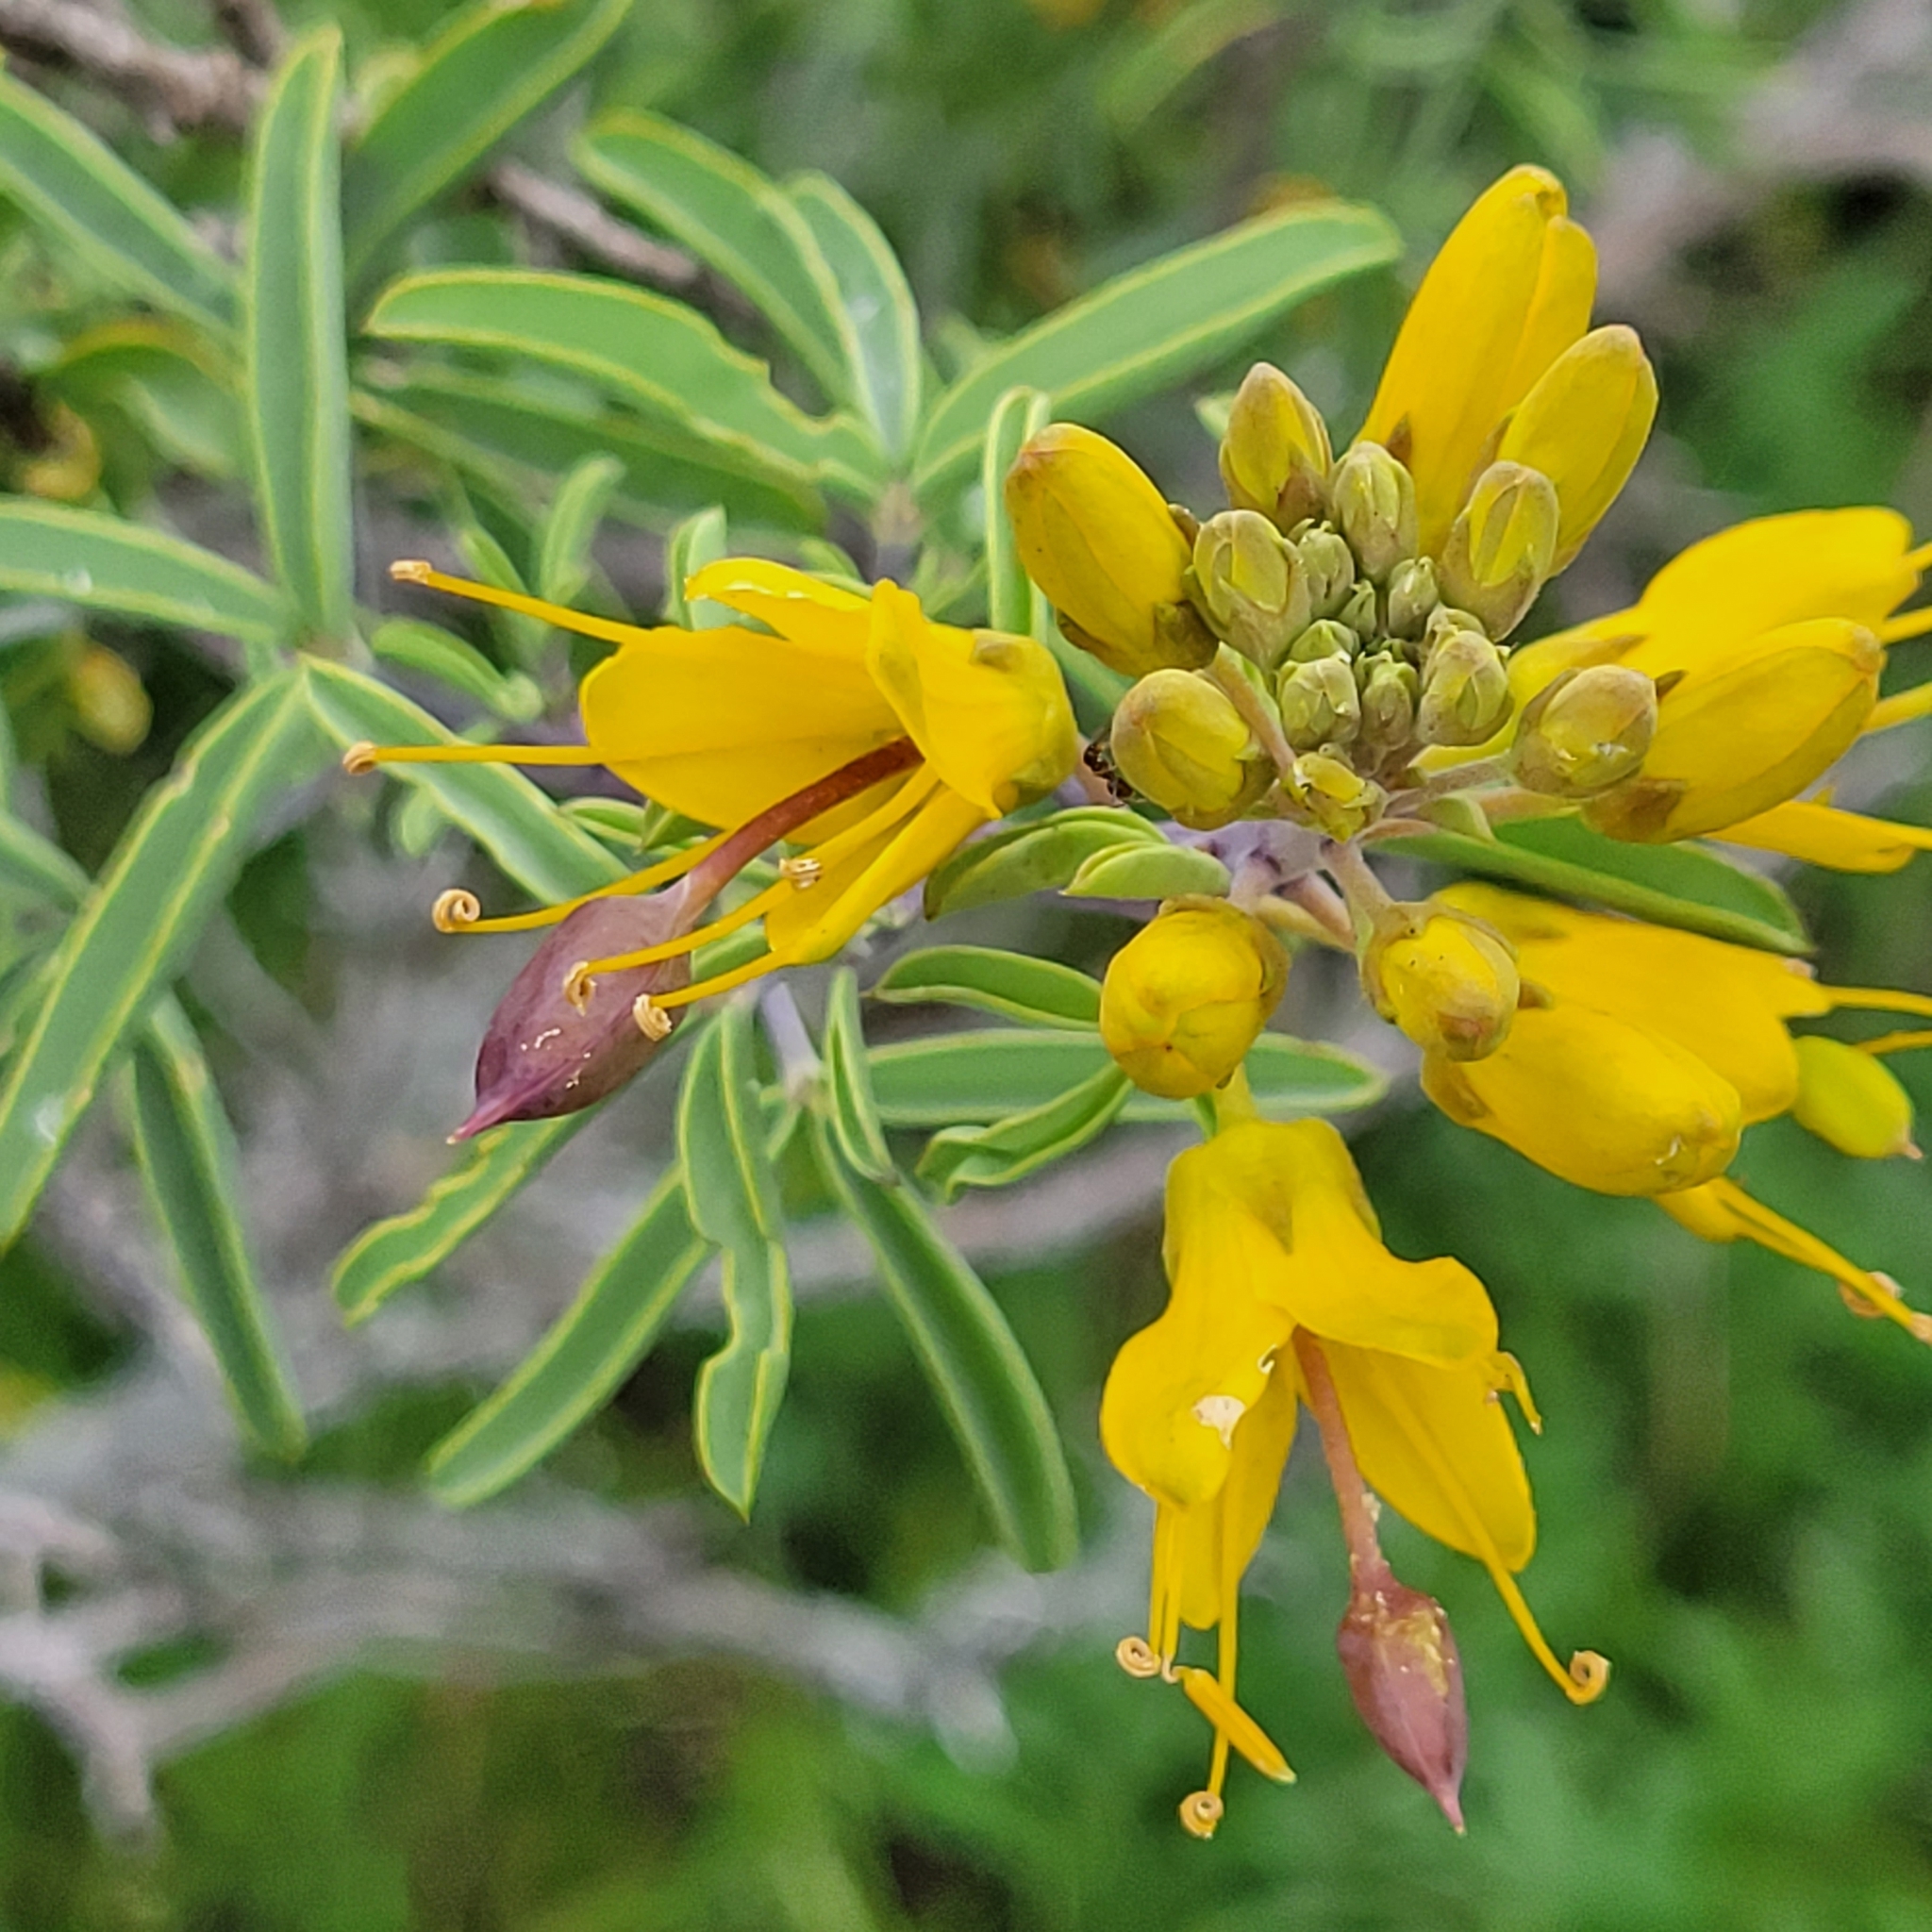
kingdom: Plantae
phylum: Tracheophyta
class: Magnoliopsida
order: Brassicales
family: Cleomaceae
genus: Cleomella
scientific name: Cleomella arborea
